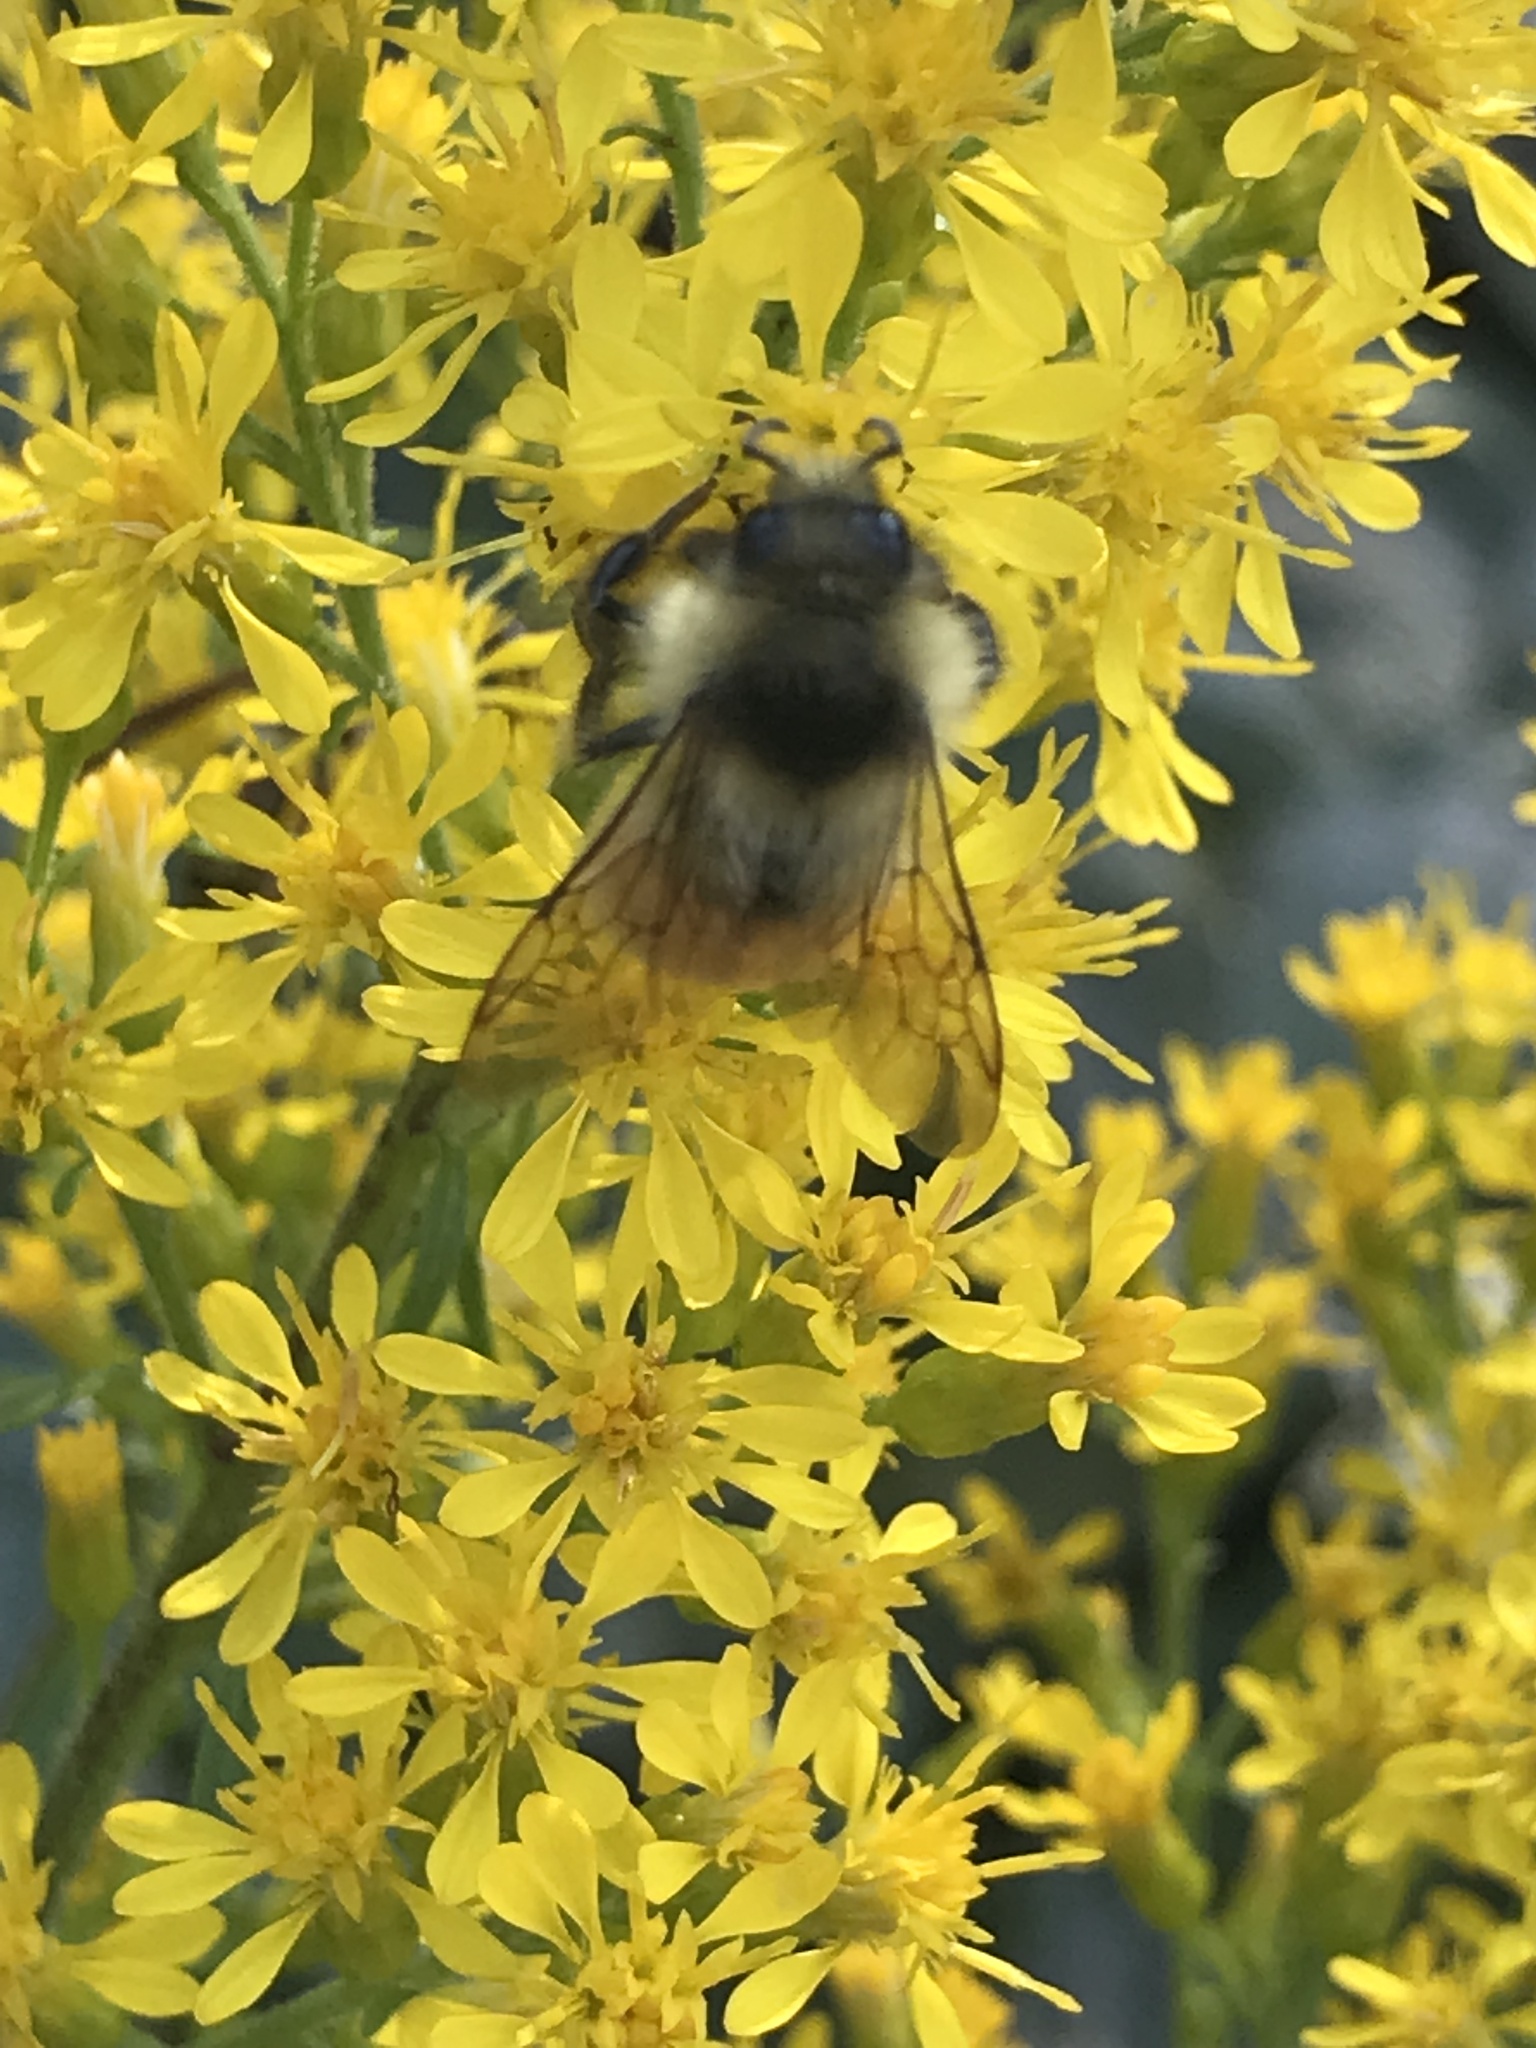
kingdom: Animalia
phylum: Arthropoda
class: Insecta
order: Hymenoptera
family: Apidae
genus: Bombus
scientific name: Bombus ternarius
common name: Tri-colored bumble bee
